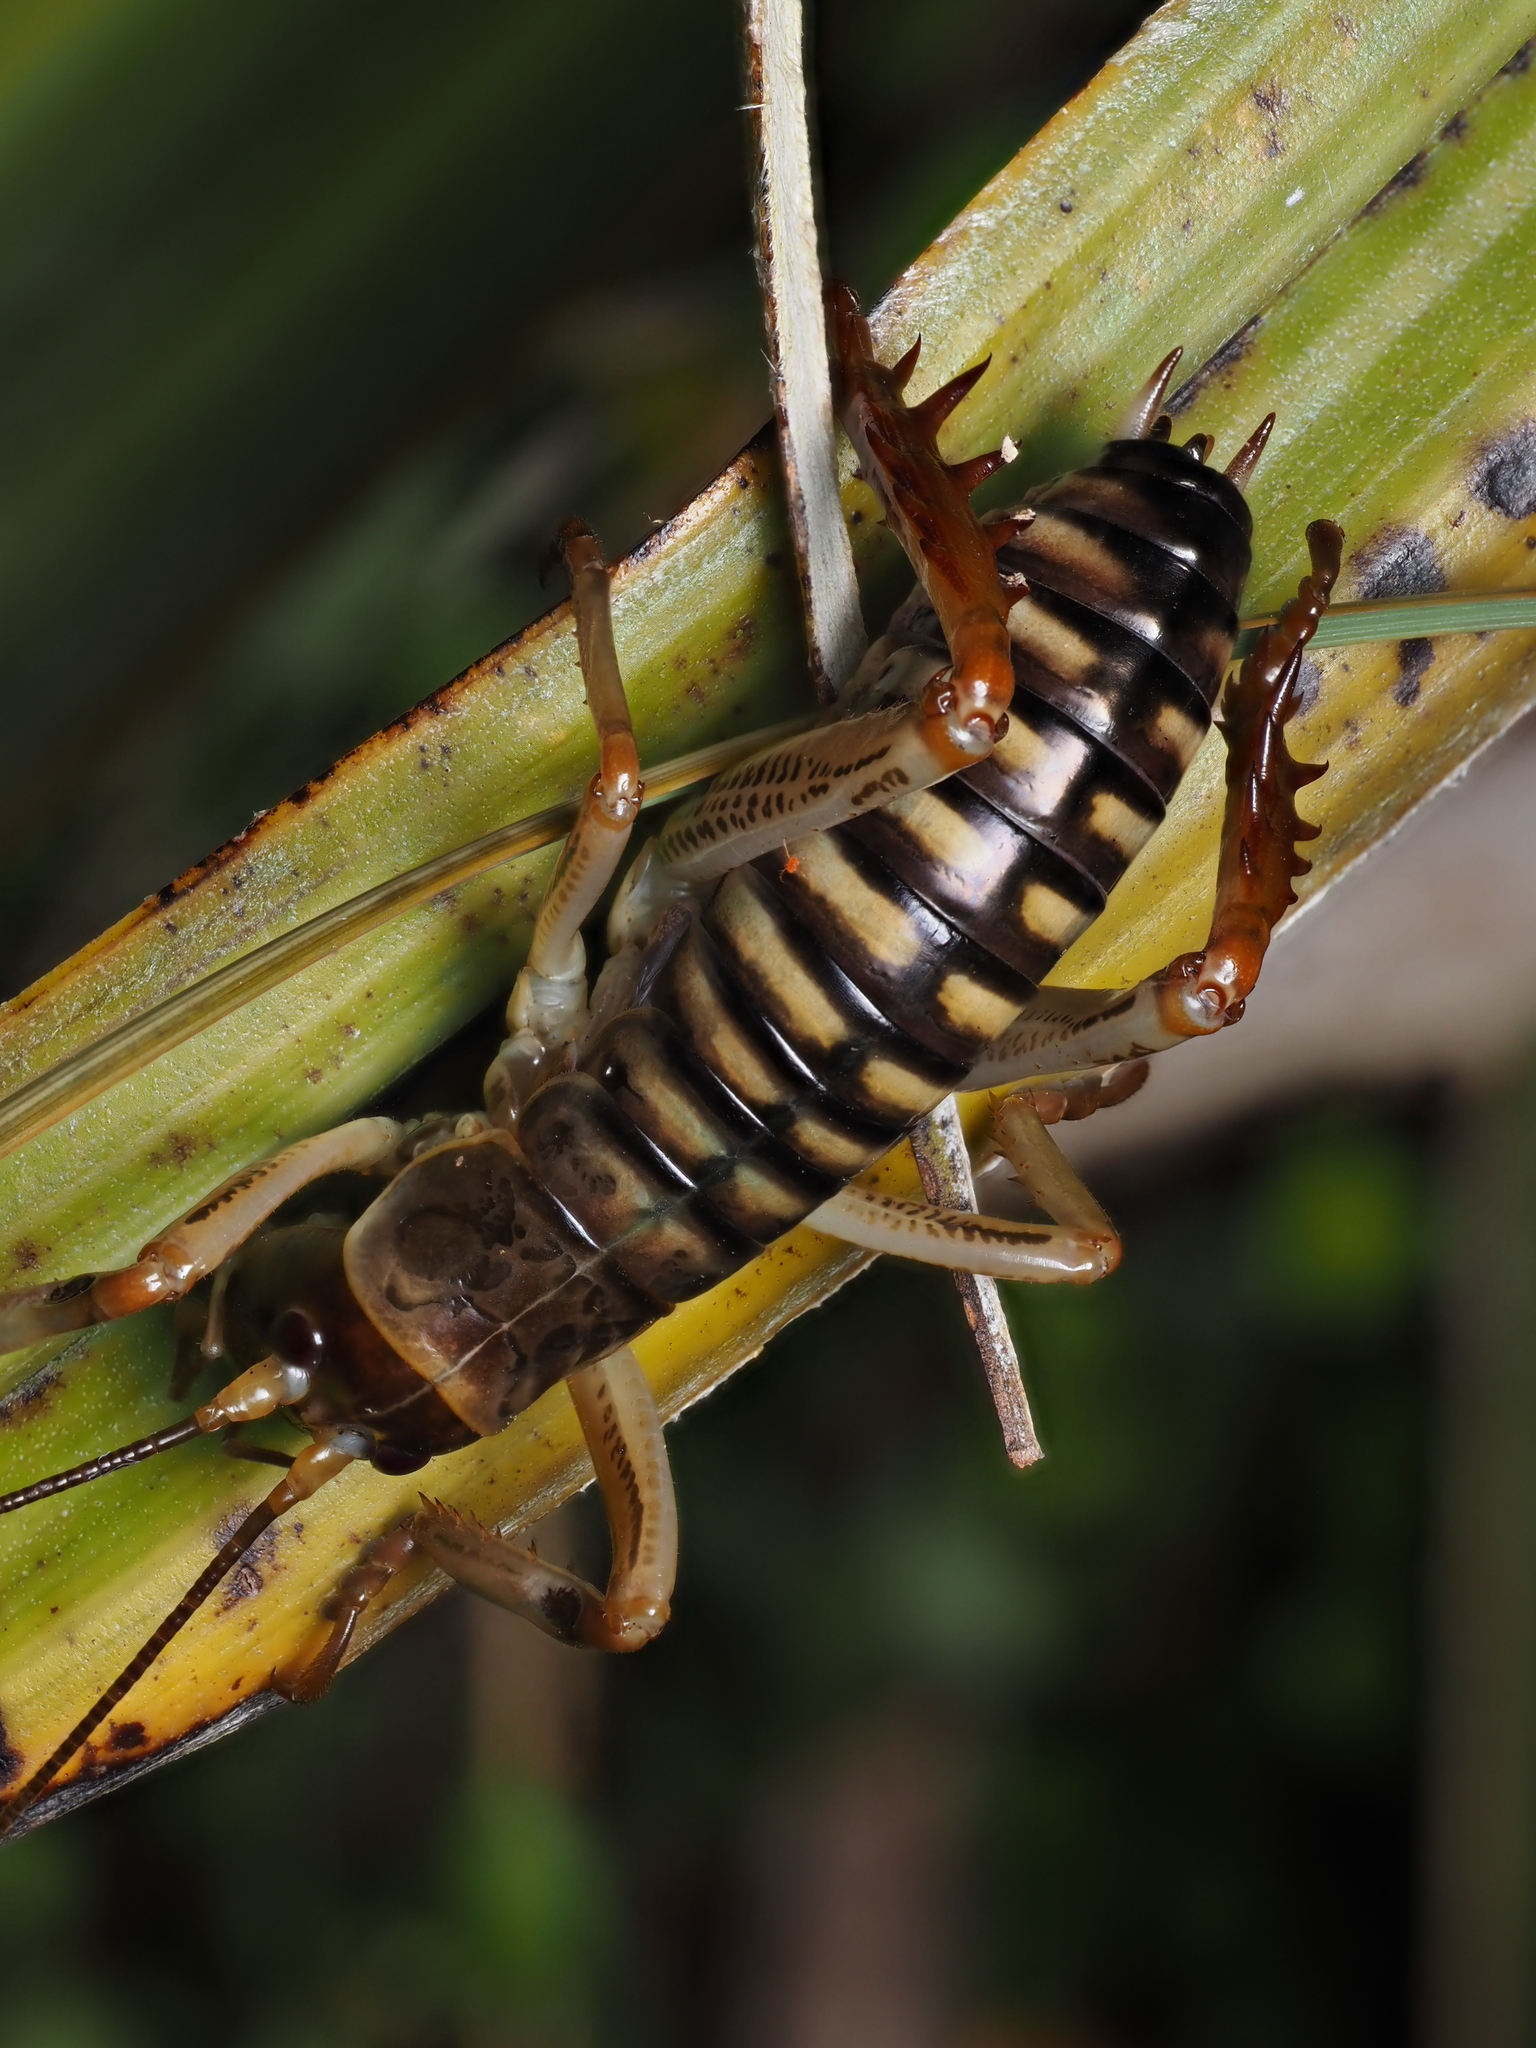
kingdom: Animalia
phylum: Arthropoda
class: Insecta
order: Orthoptera
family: Anostostomatidae
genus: Hemideina
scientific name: Hemideina crassidens
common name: Wellington tree weta
